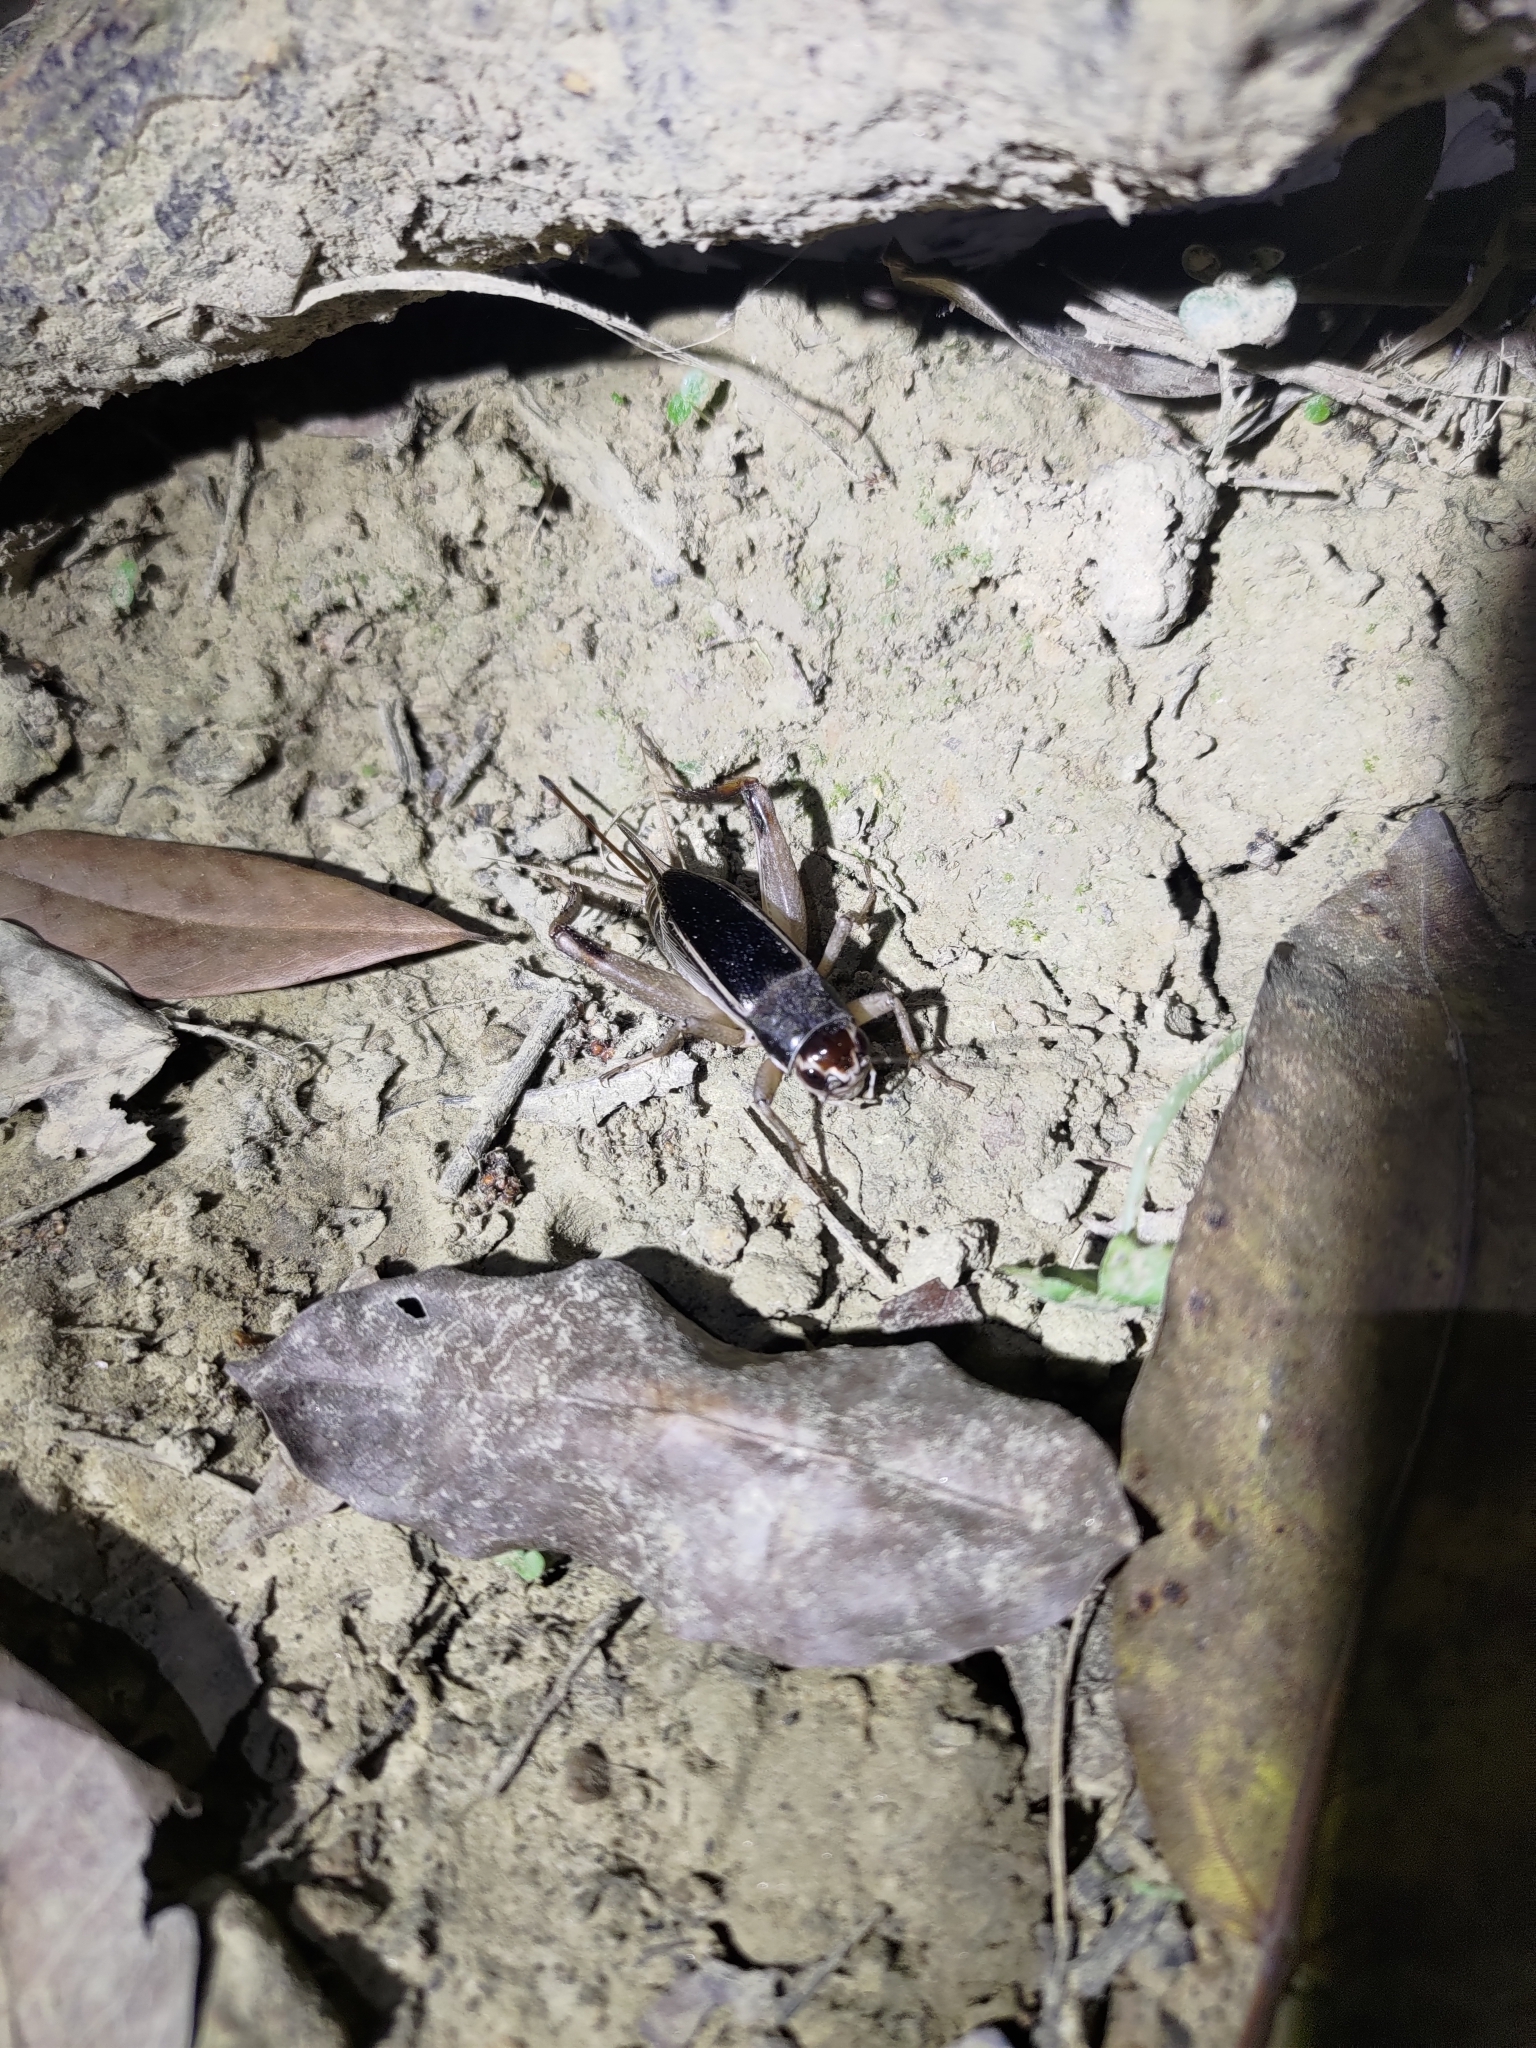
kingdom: Animalia
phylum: Arthropoda
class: Insecta
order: Orthoptera
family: Gryllidae
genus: Teleogryllus
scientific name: Teleogryllus mitratus
